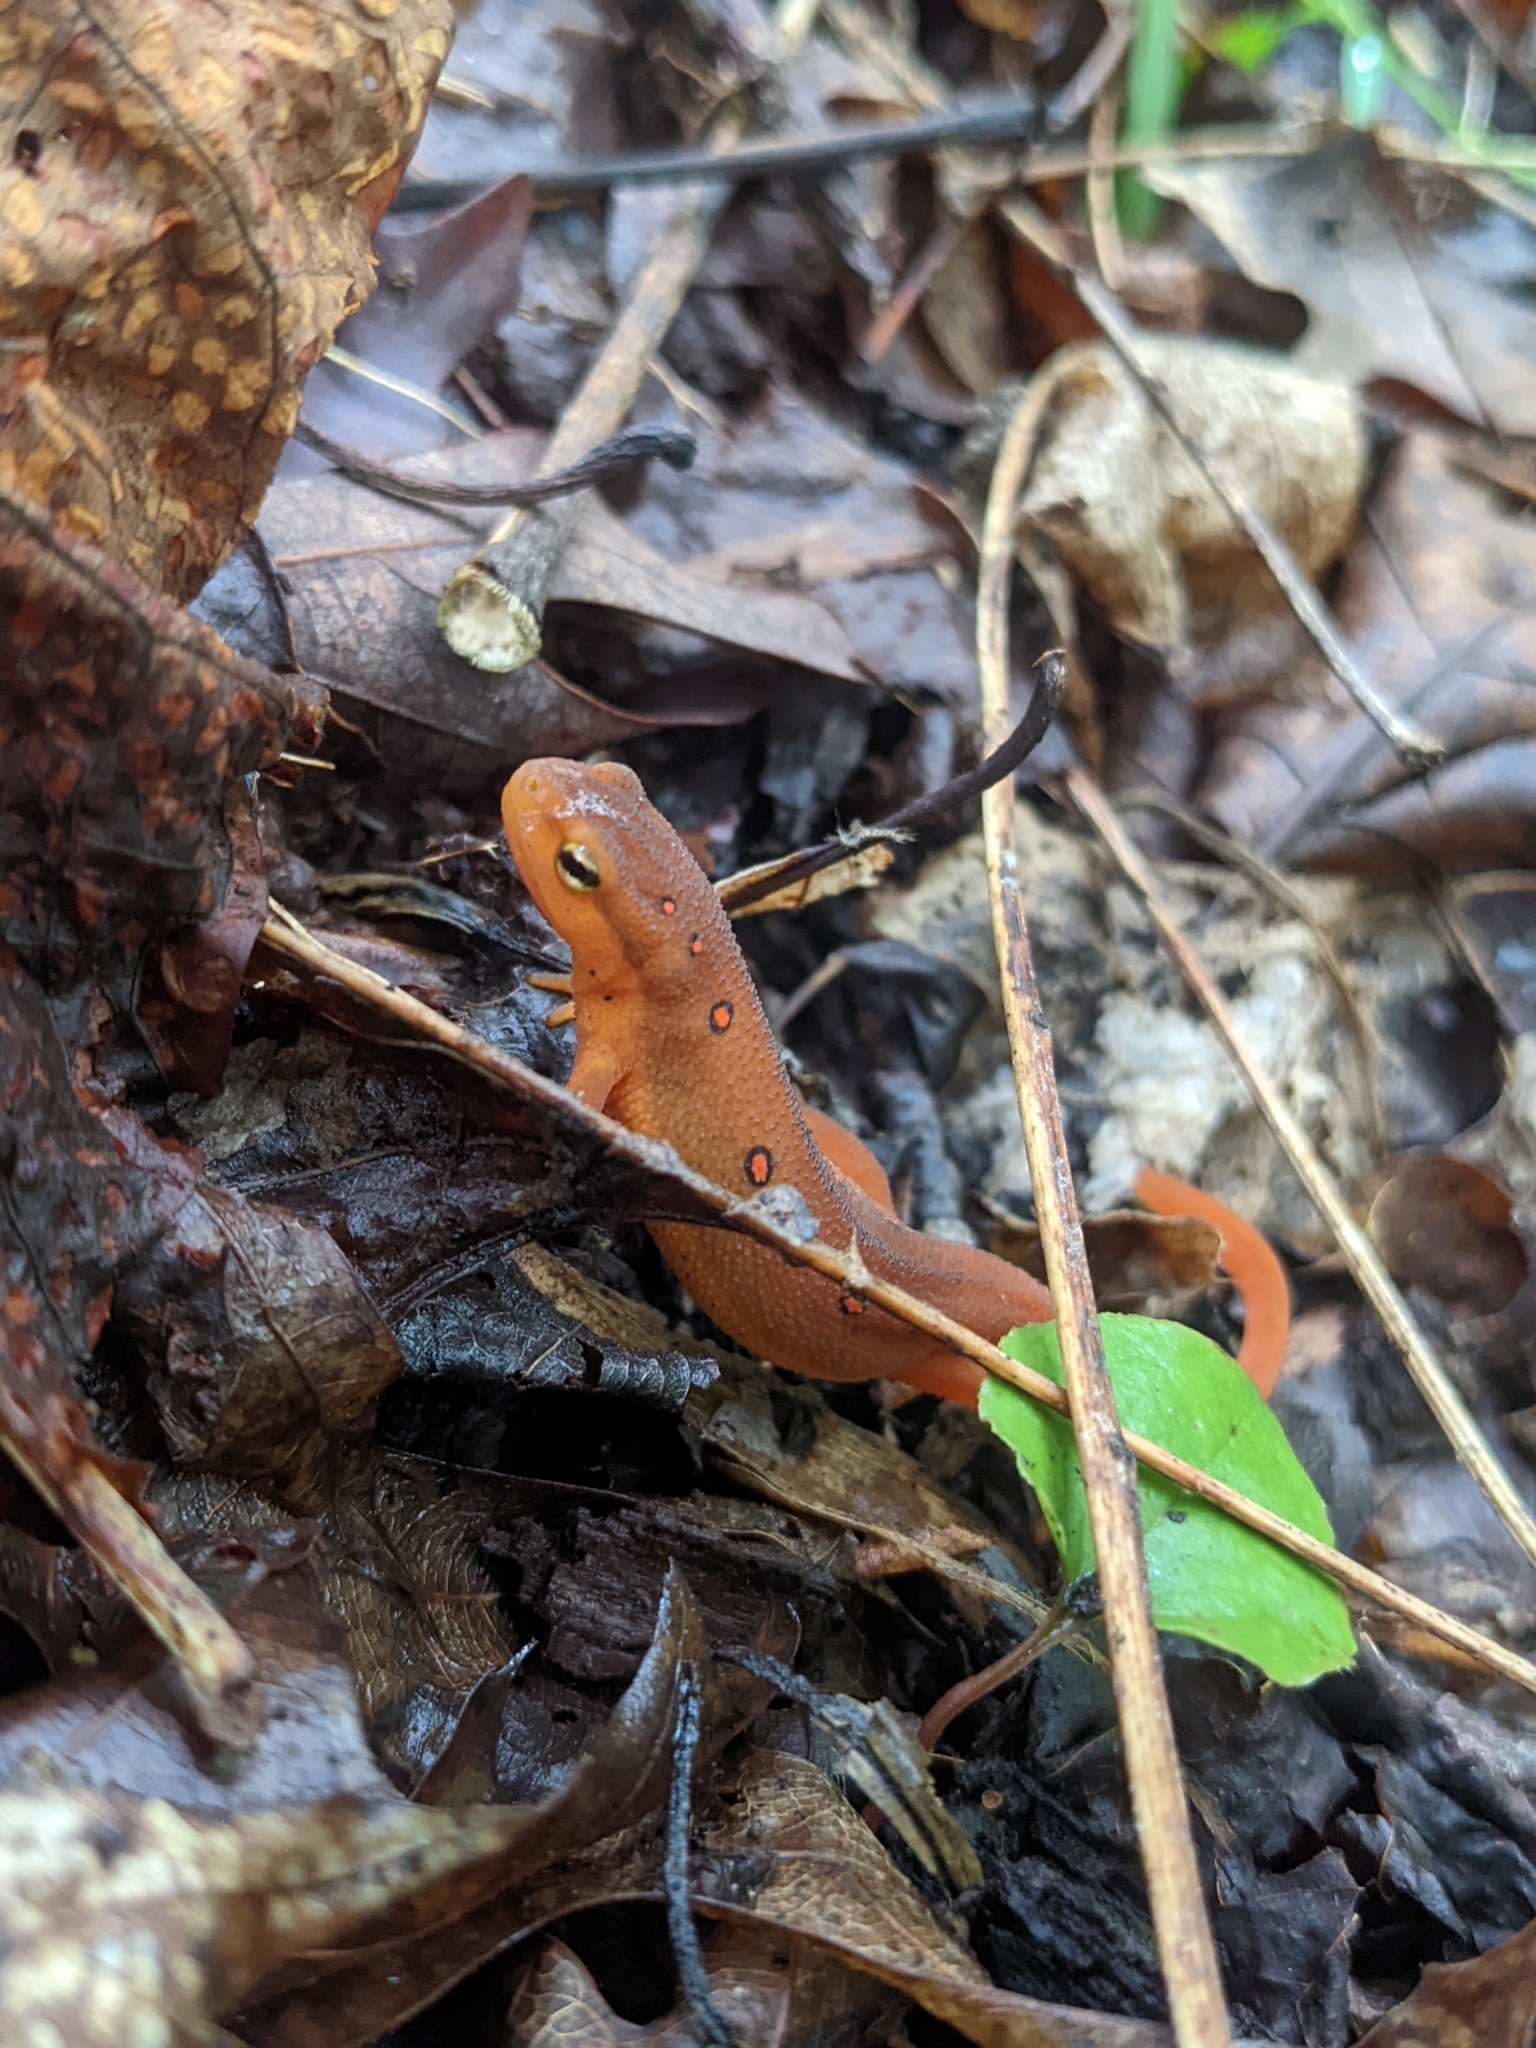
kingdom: Animalia
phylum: Chordata
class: Amphibia
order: Caudata
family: Salamandridae
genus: Notophthalmus
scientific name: Notophthalmus viridescens
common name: Eastern newt
